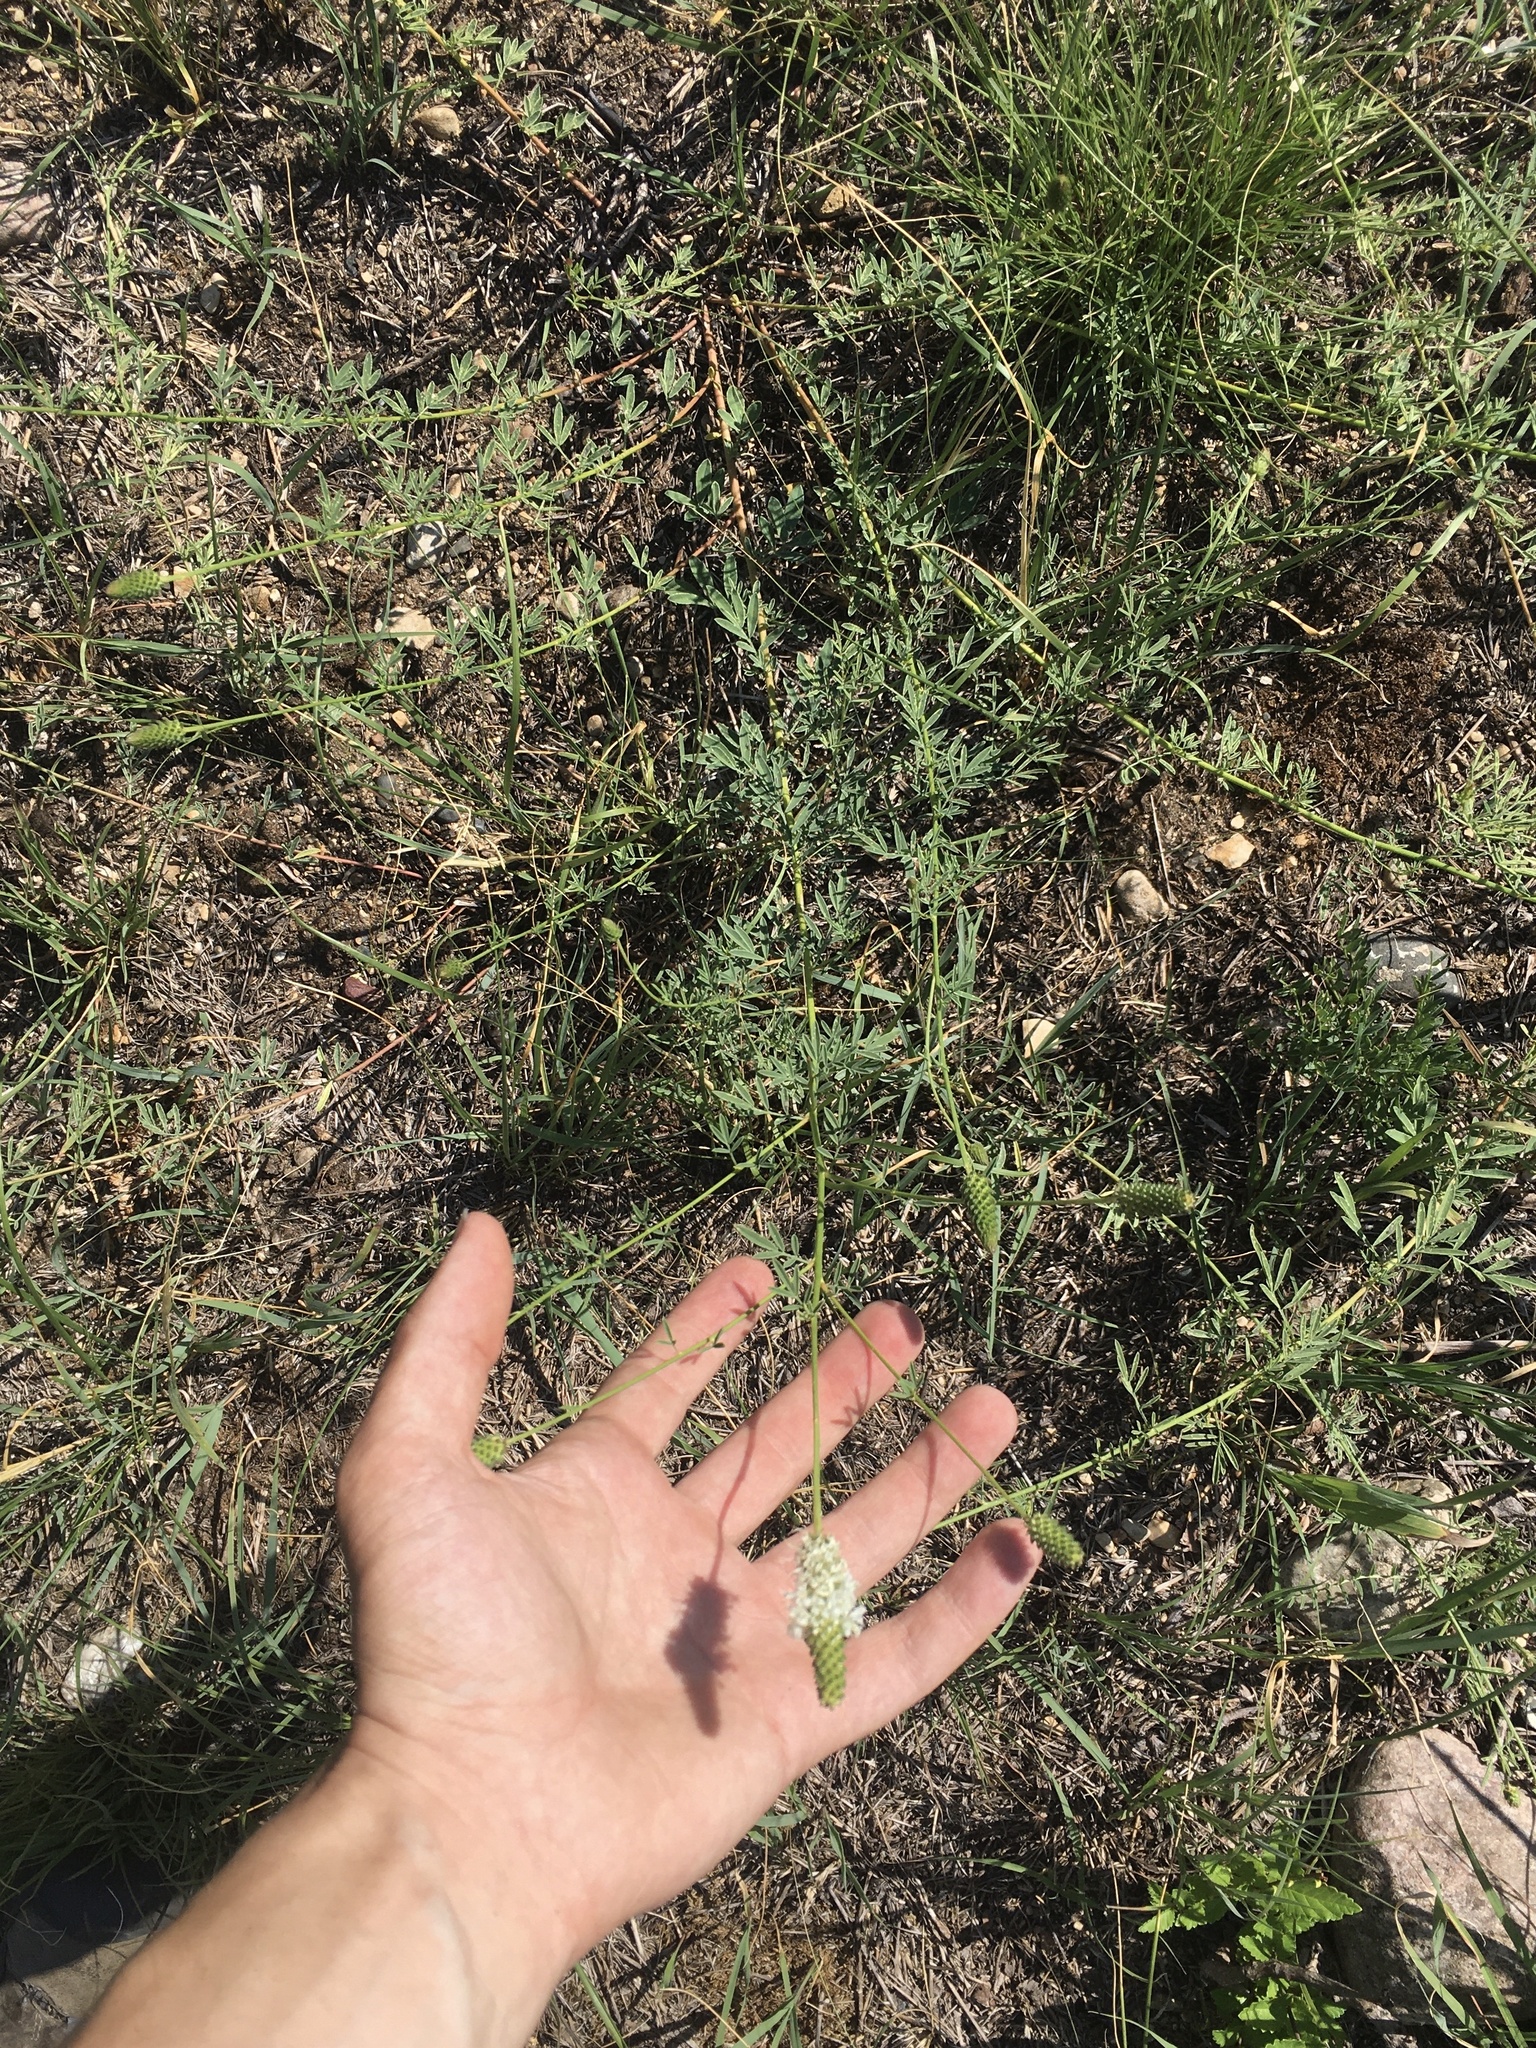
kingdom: Plantae
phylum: Tracheophyta
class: Magnoliopsida
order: Fabales
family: Fabaceae
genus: Dalea
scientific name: Dalea candida
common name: White prairie-clover
